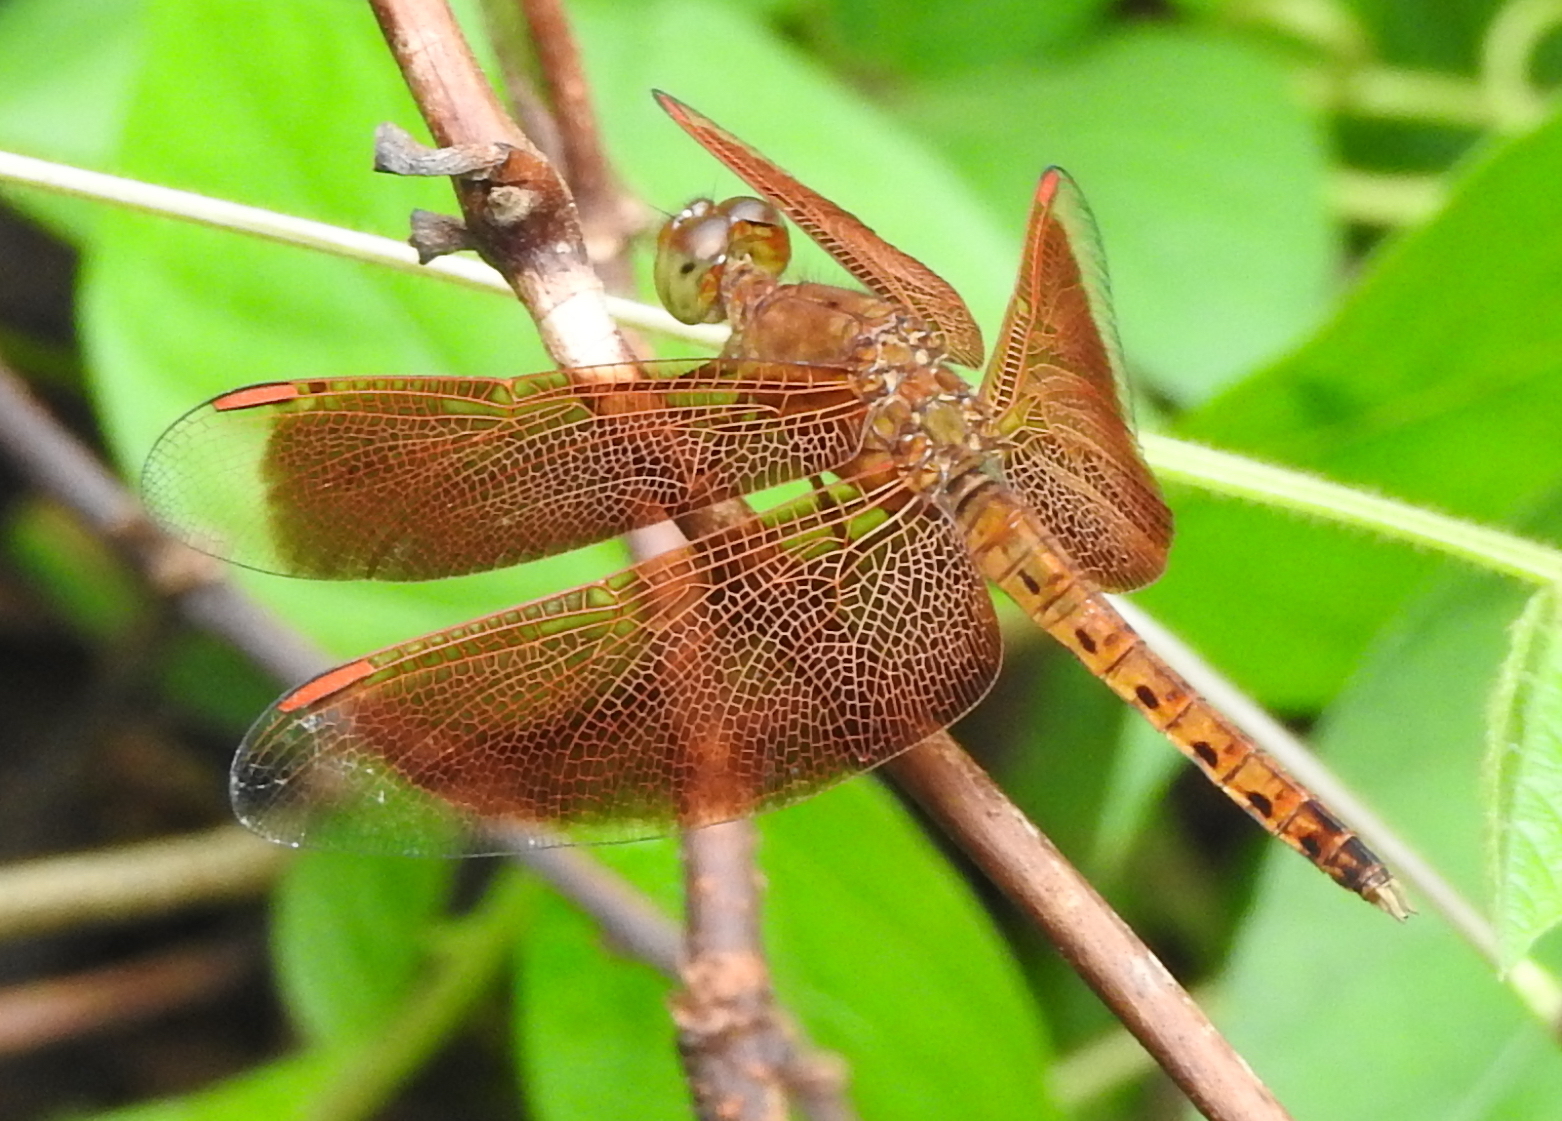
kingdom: Animalia
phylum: Arthropoda
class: Insecta
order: Odonata
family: Libellulidae
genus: Neurothemis
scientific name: Neurothemis fluctuans
